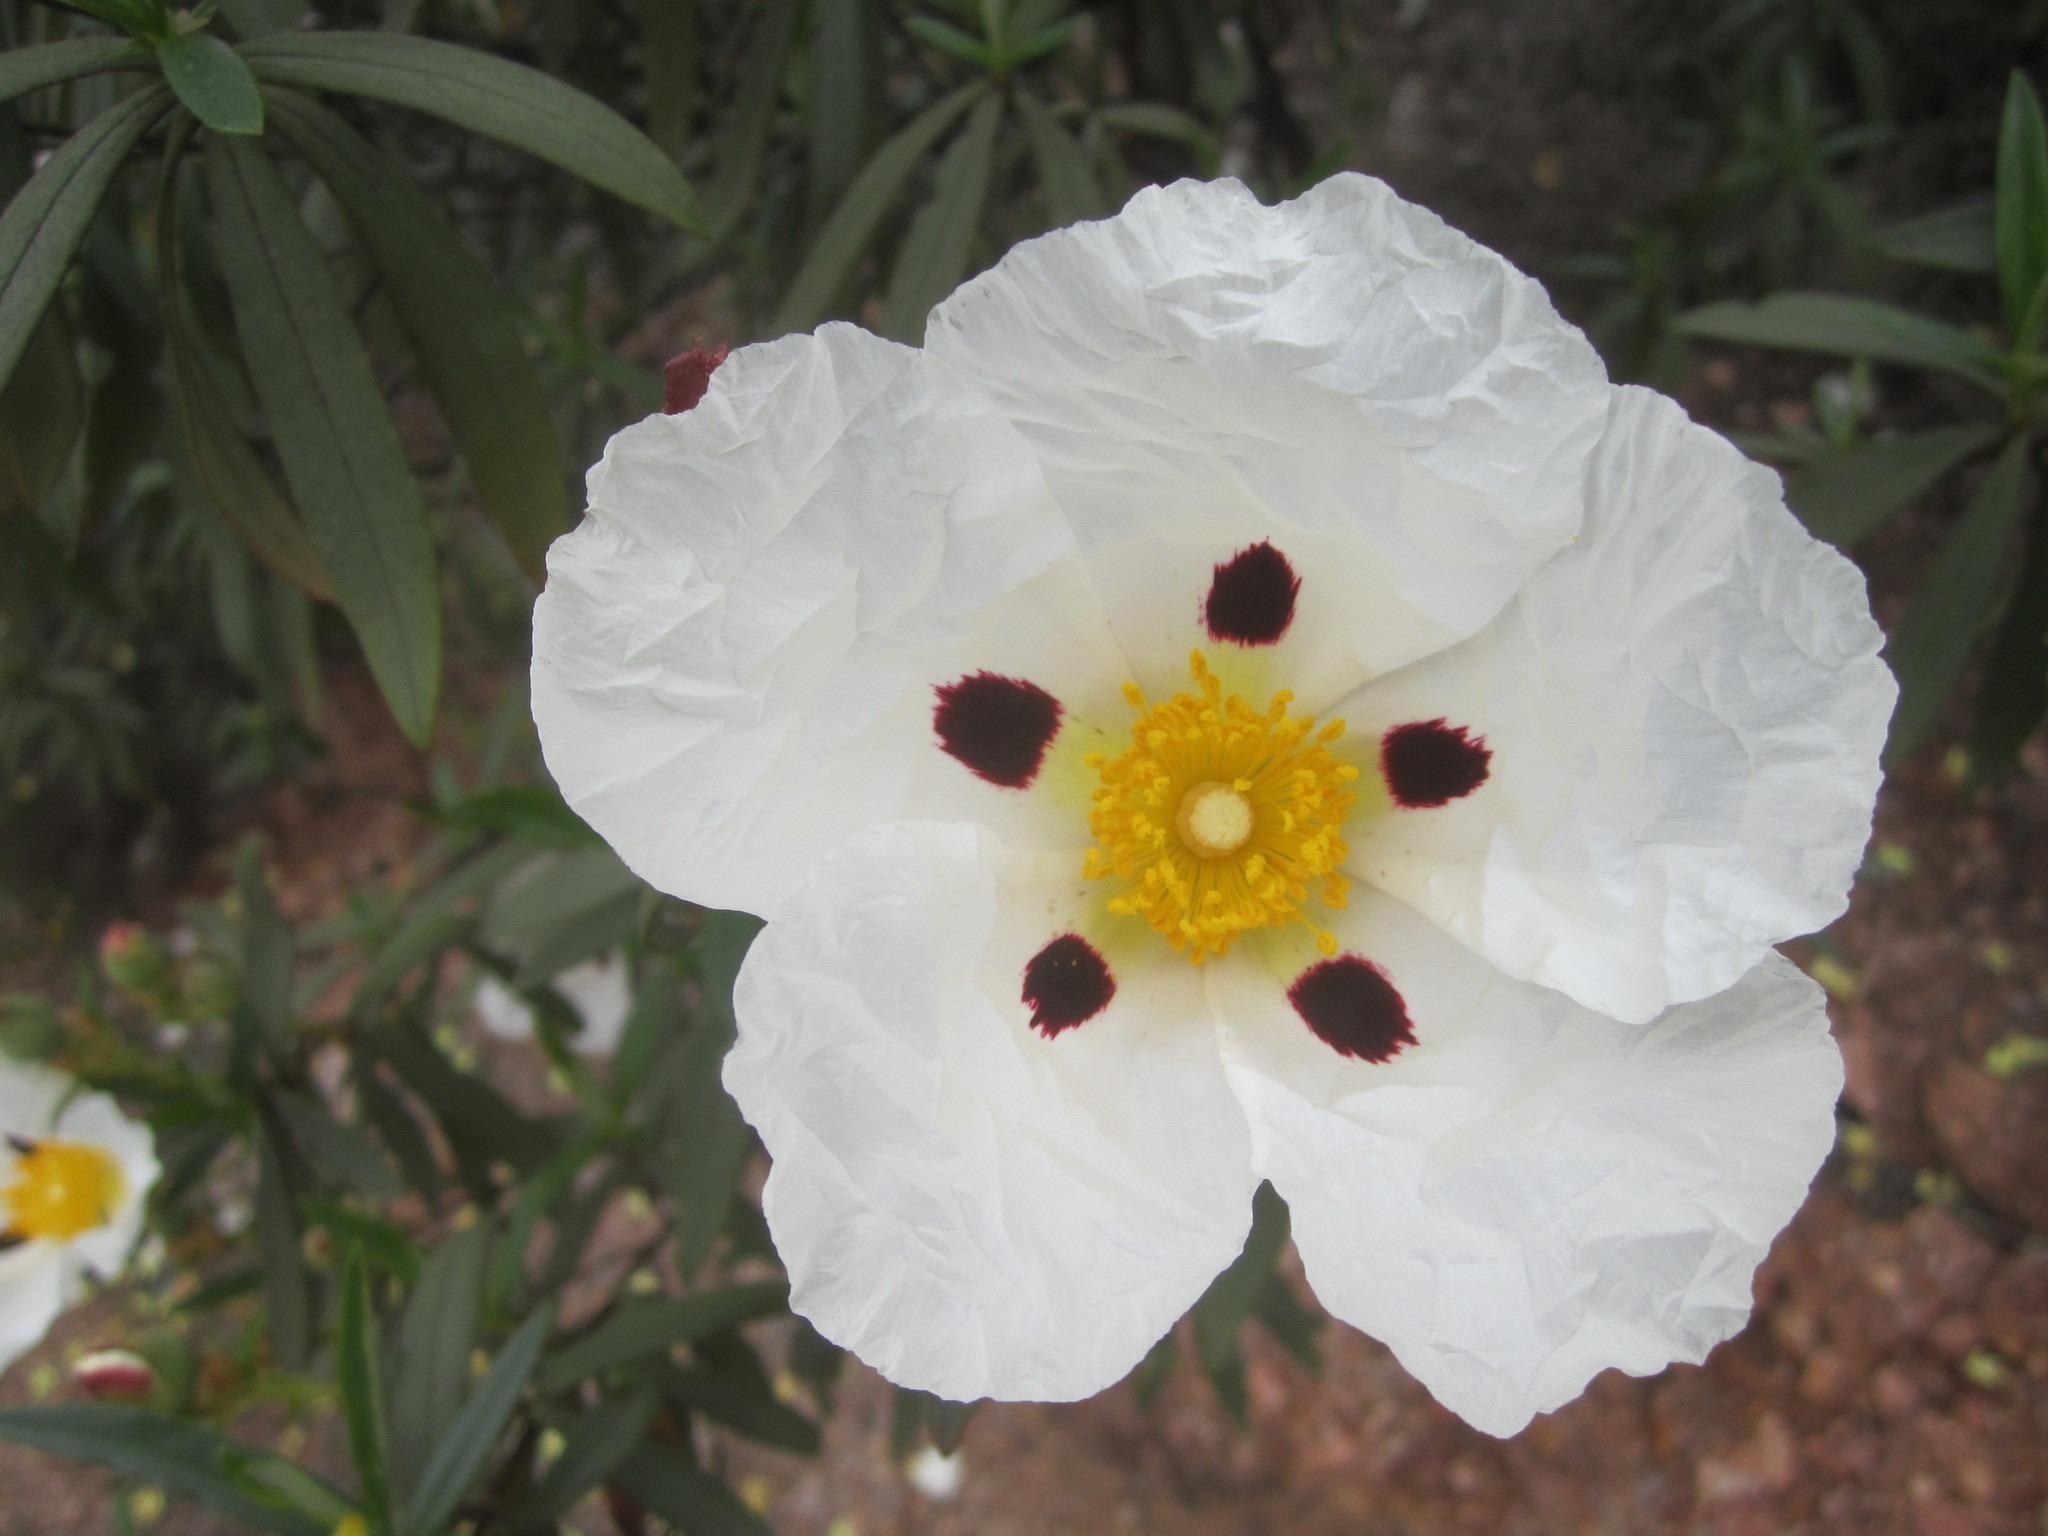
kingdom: Plantae
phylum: Tracheophyta
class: Magnoliopsida
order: Malvales
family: Cistaceae
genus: Cistus
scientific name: Cistus ladanifer
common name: Common gum cistus
